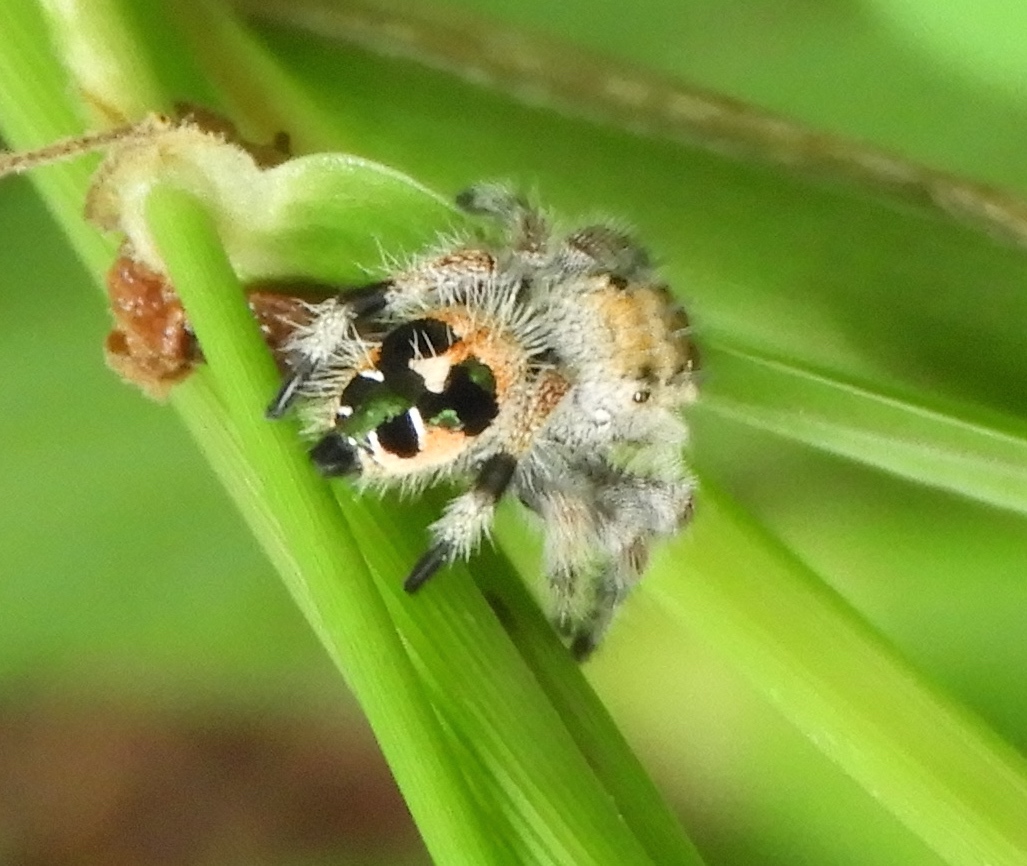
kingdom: Animalia
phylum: Arthropoda
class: Arachnida
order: Araneae
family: Salticidae
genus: Phidippus
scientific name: Phidippus maddisoni
